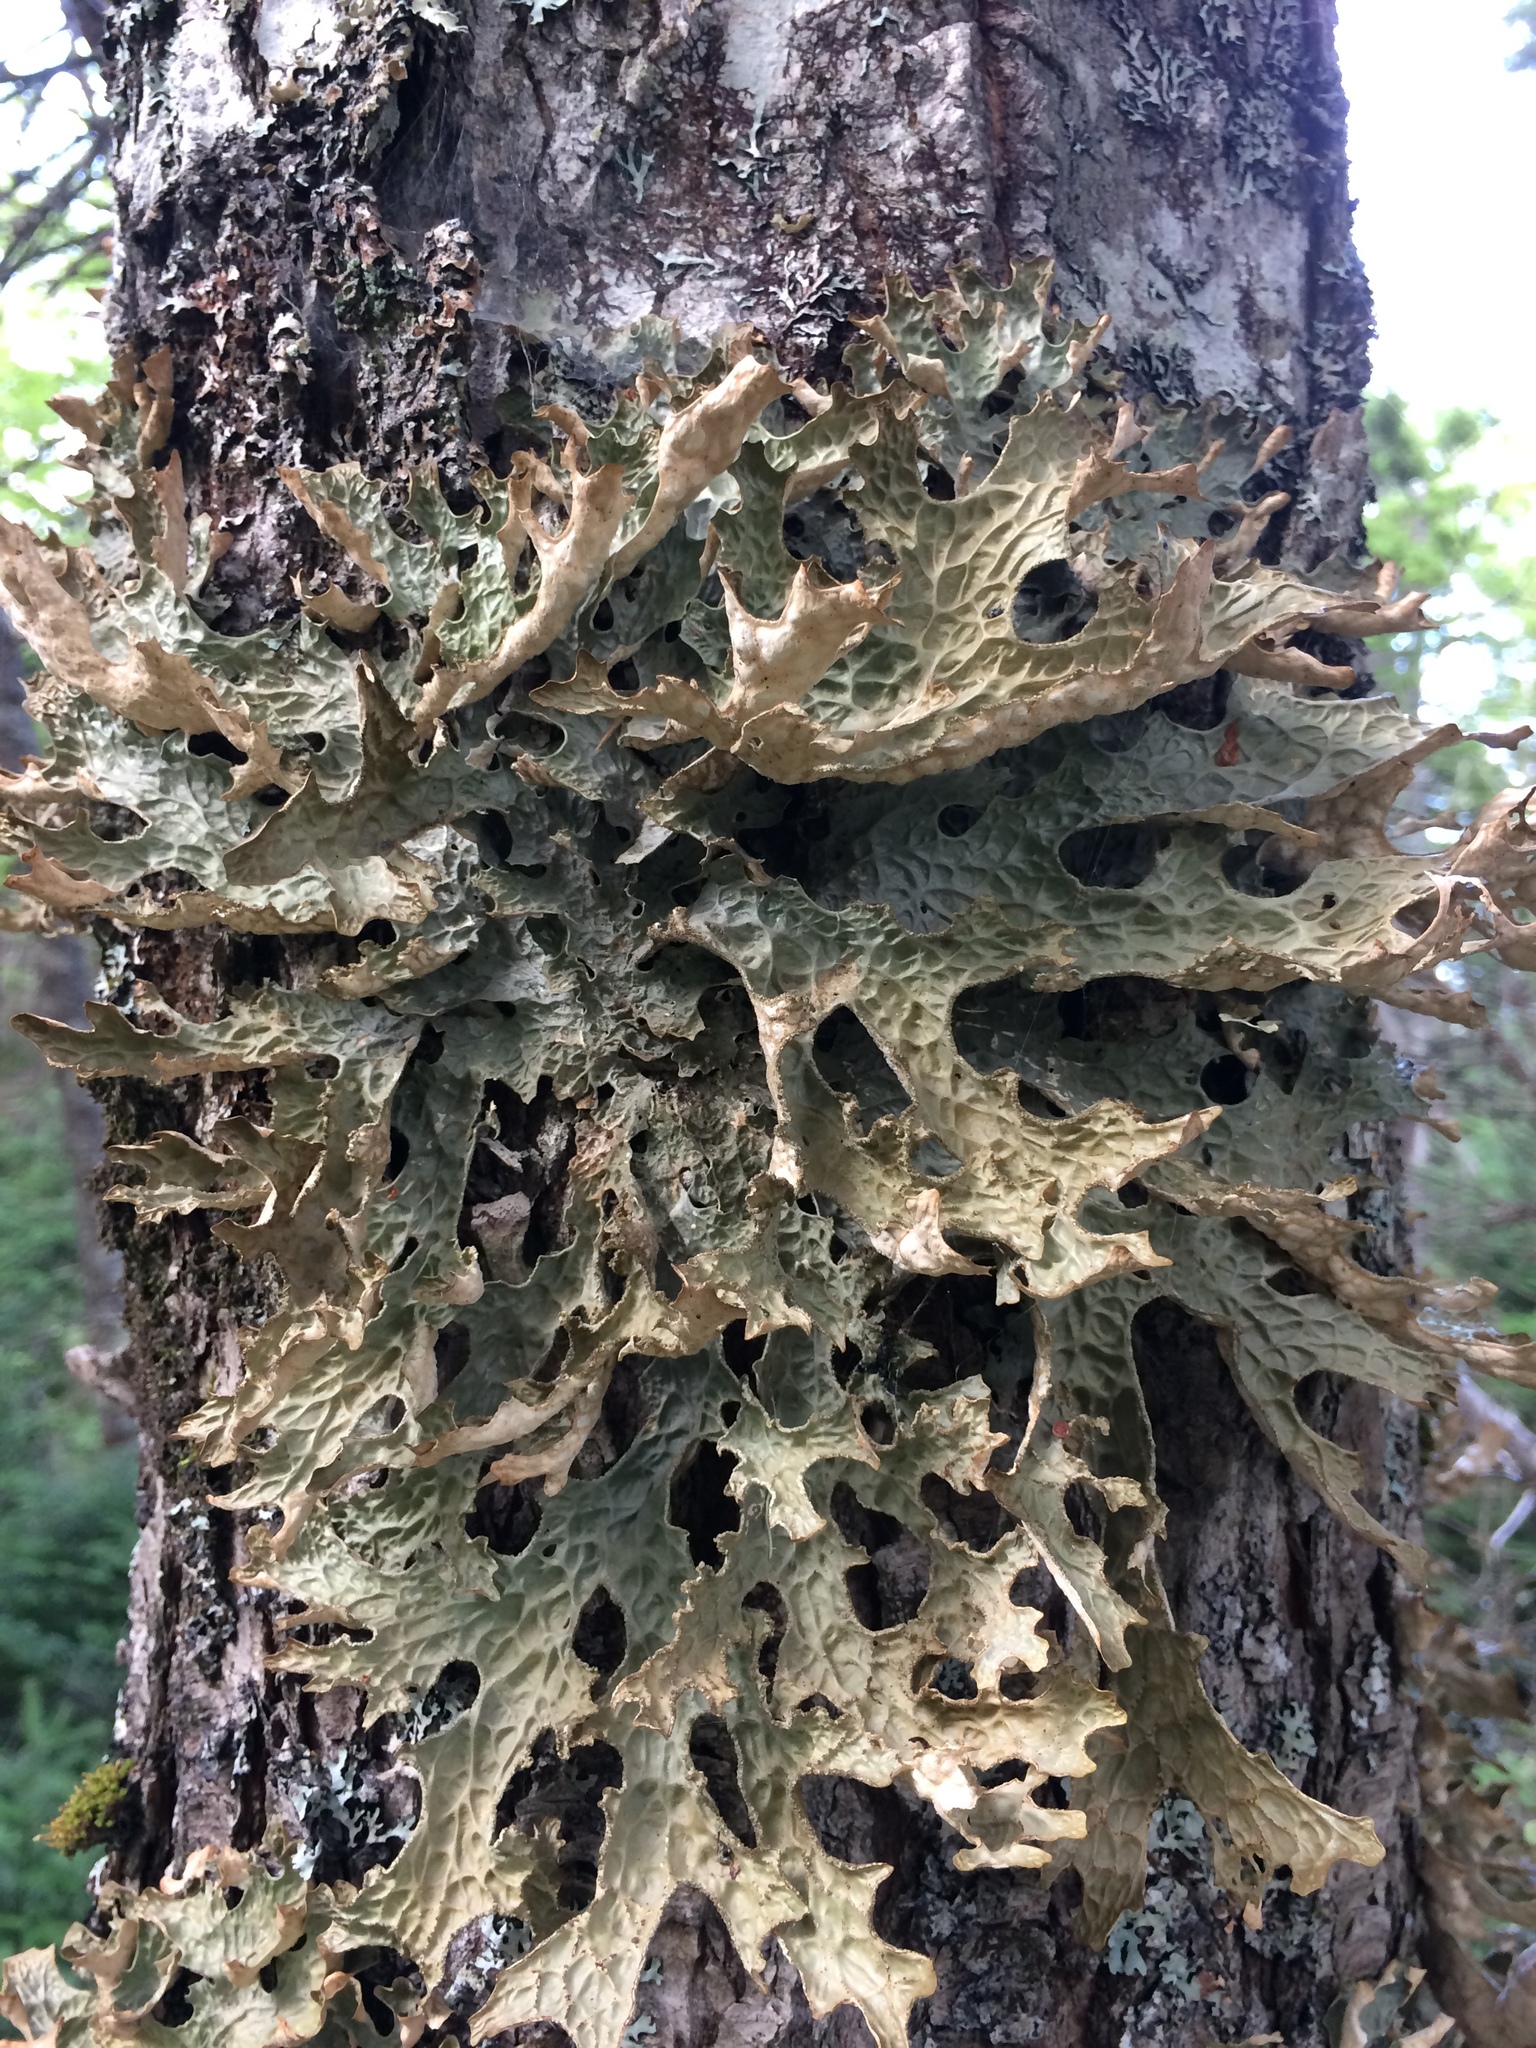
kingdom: Fungi
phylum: Ascomycota
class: Lecanoromycetes
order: Peltigerales
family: Lobariaceae
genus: Lobaria
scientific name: Lobaria pulmonaria
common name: Lungwort
